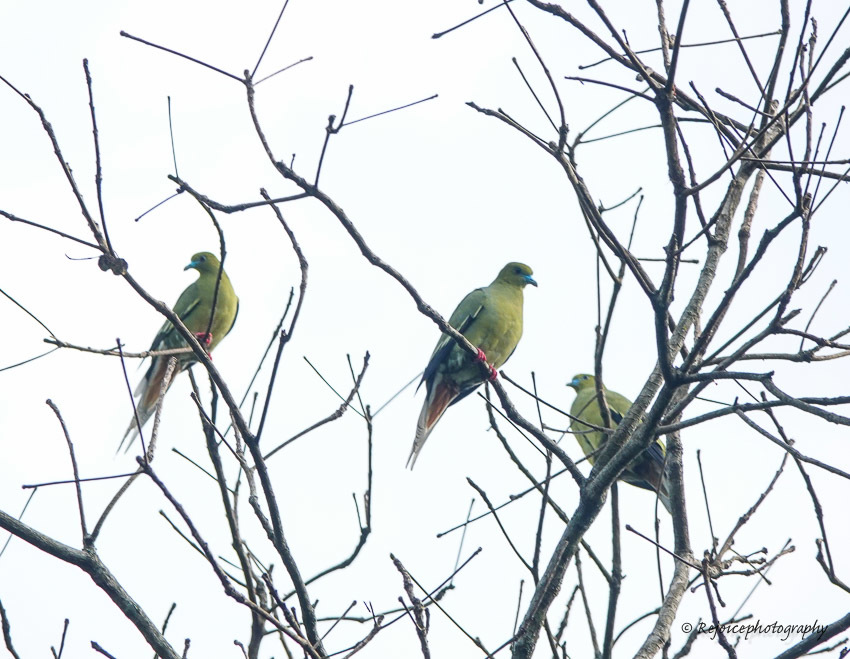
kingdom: Animalia
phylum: Chordata
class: Aves
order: Columbiformes
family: Columbidae
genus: Treron
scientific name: Treron apicauda
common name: Pin-tailed green pigeon
